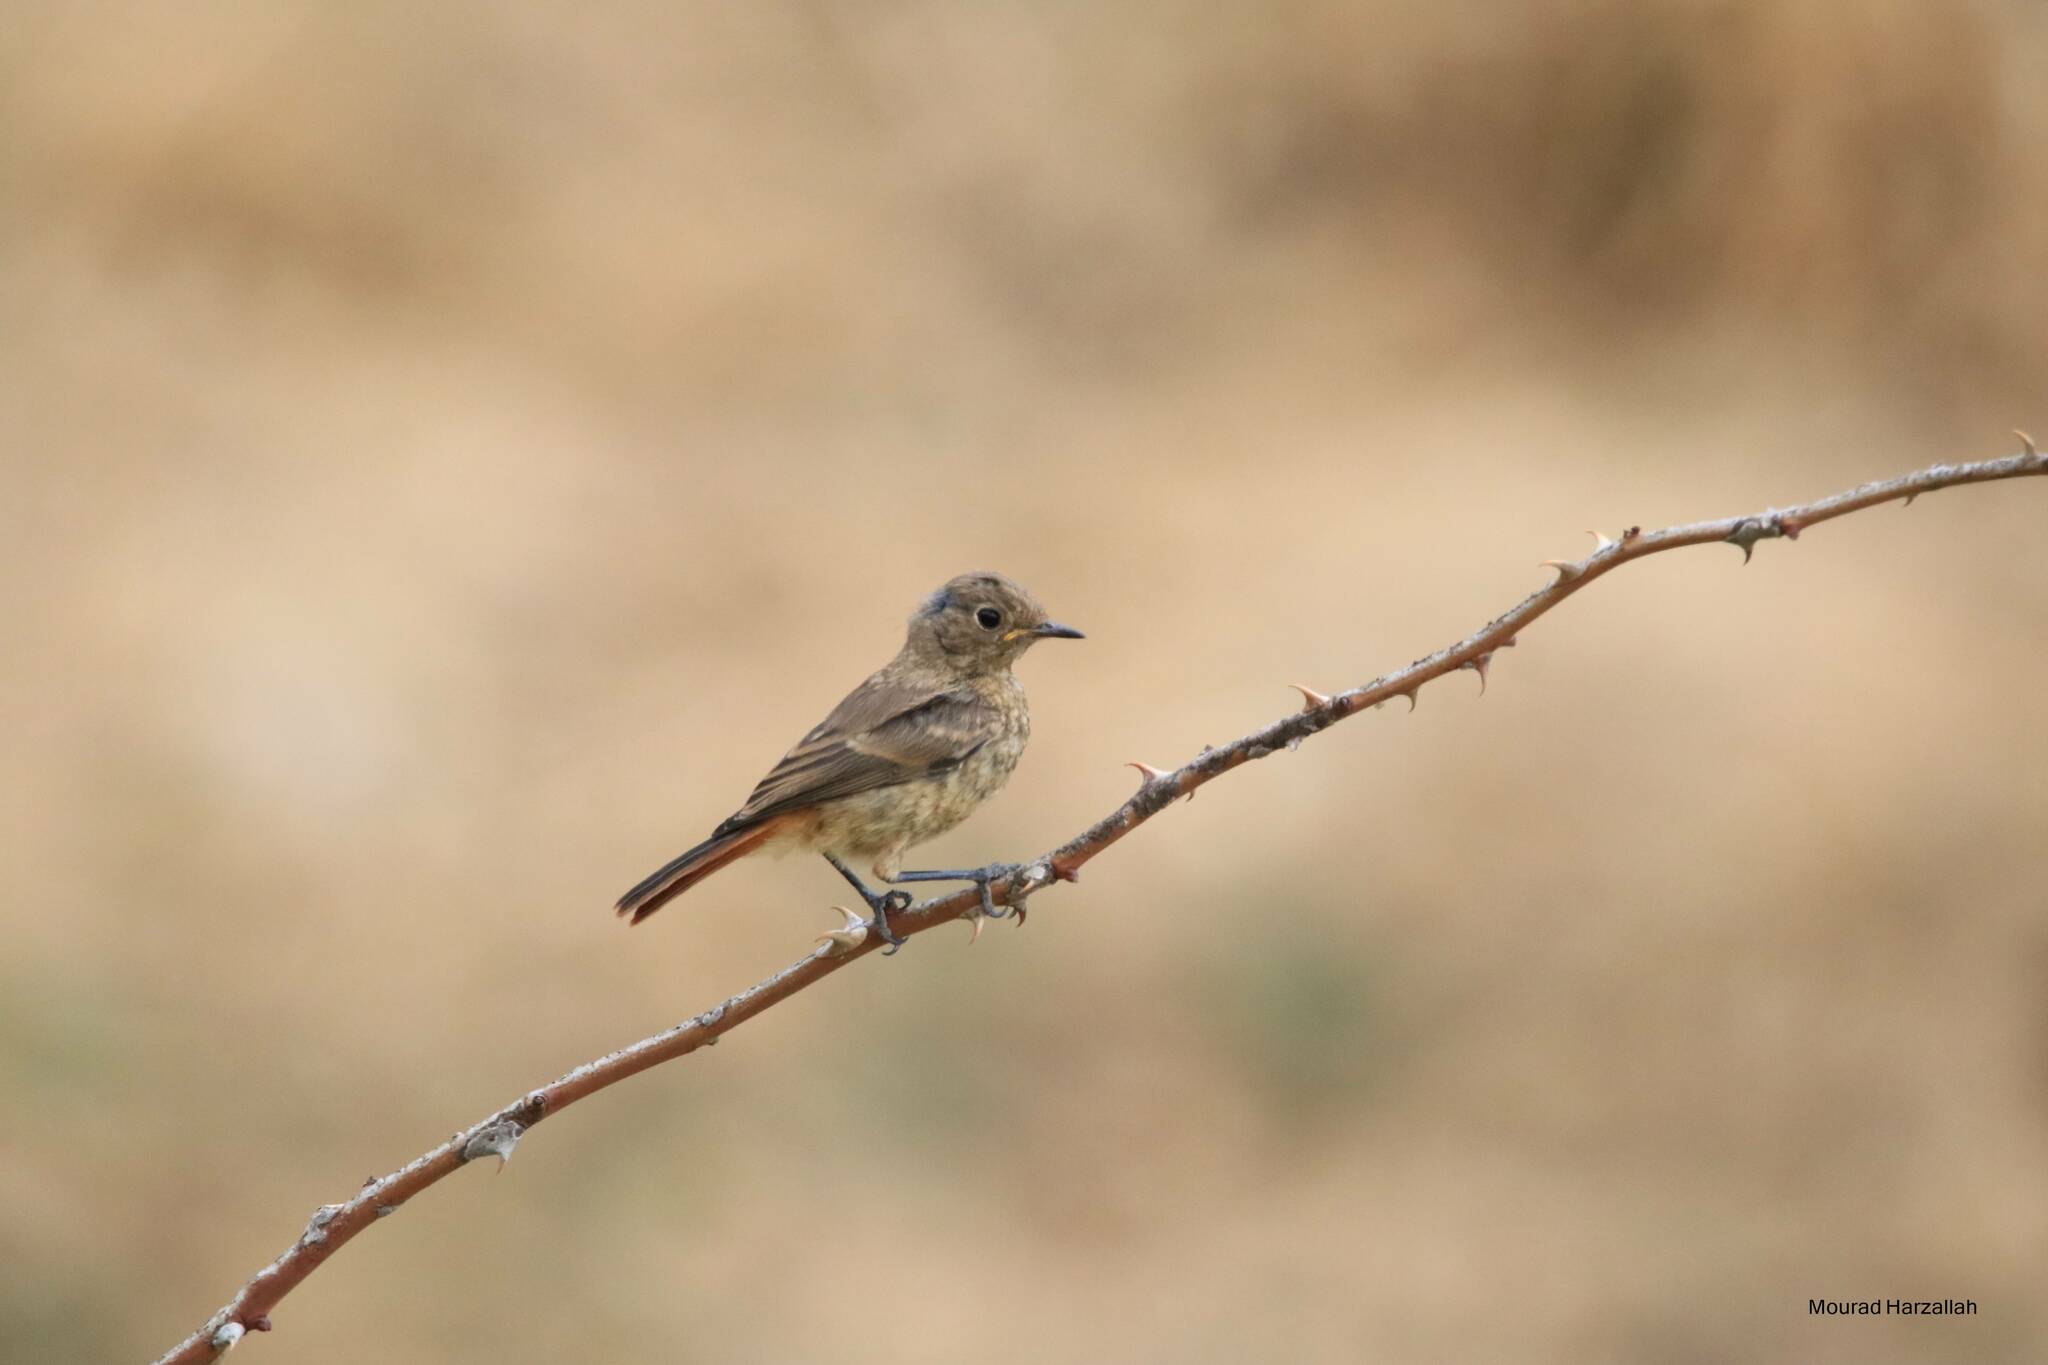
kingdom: Animalia
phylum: Chordata
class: Aves
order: Passeriformes
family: Muscicapidae
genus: Phoenicurus
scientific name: Phoenicurus moussieri
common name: Moussier's redstart
